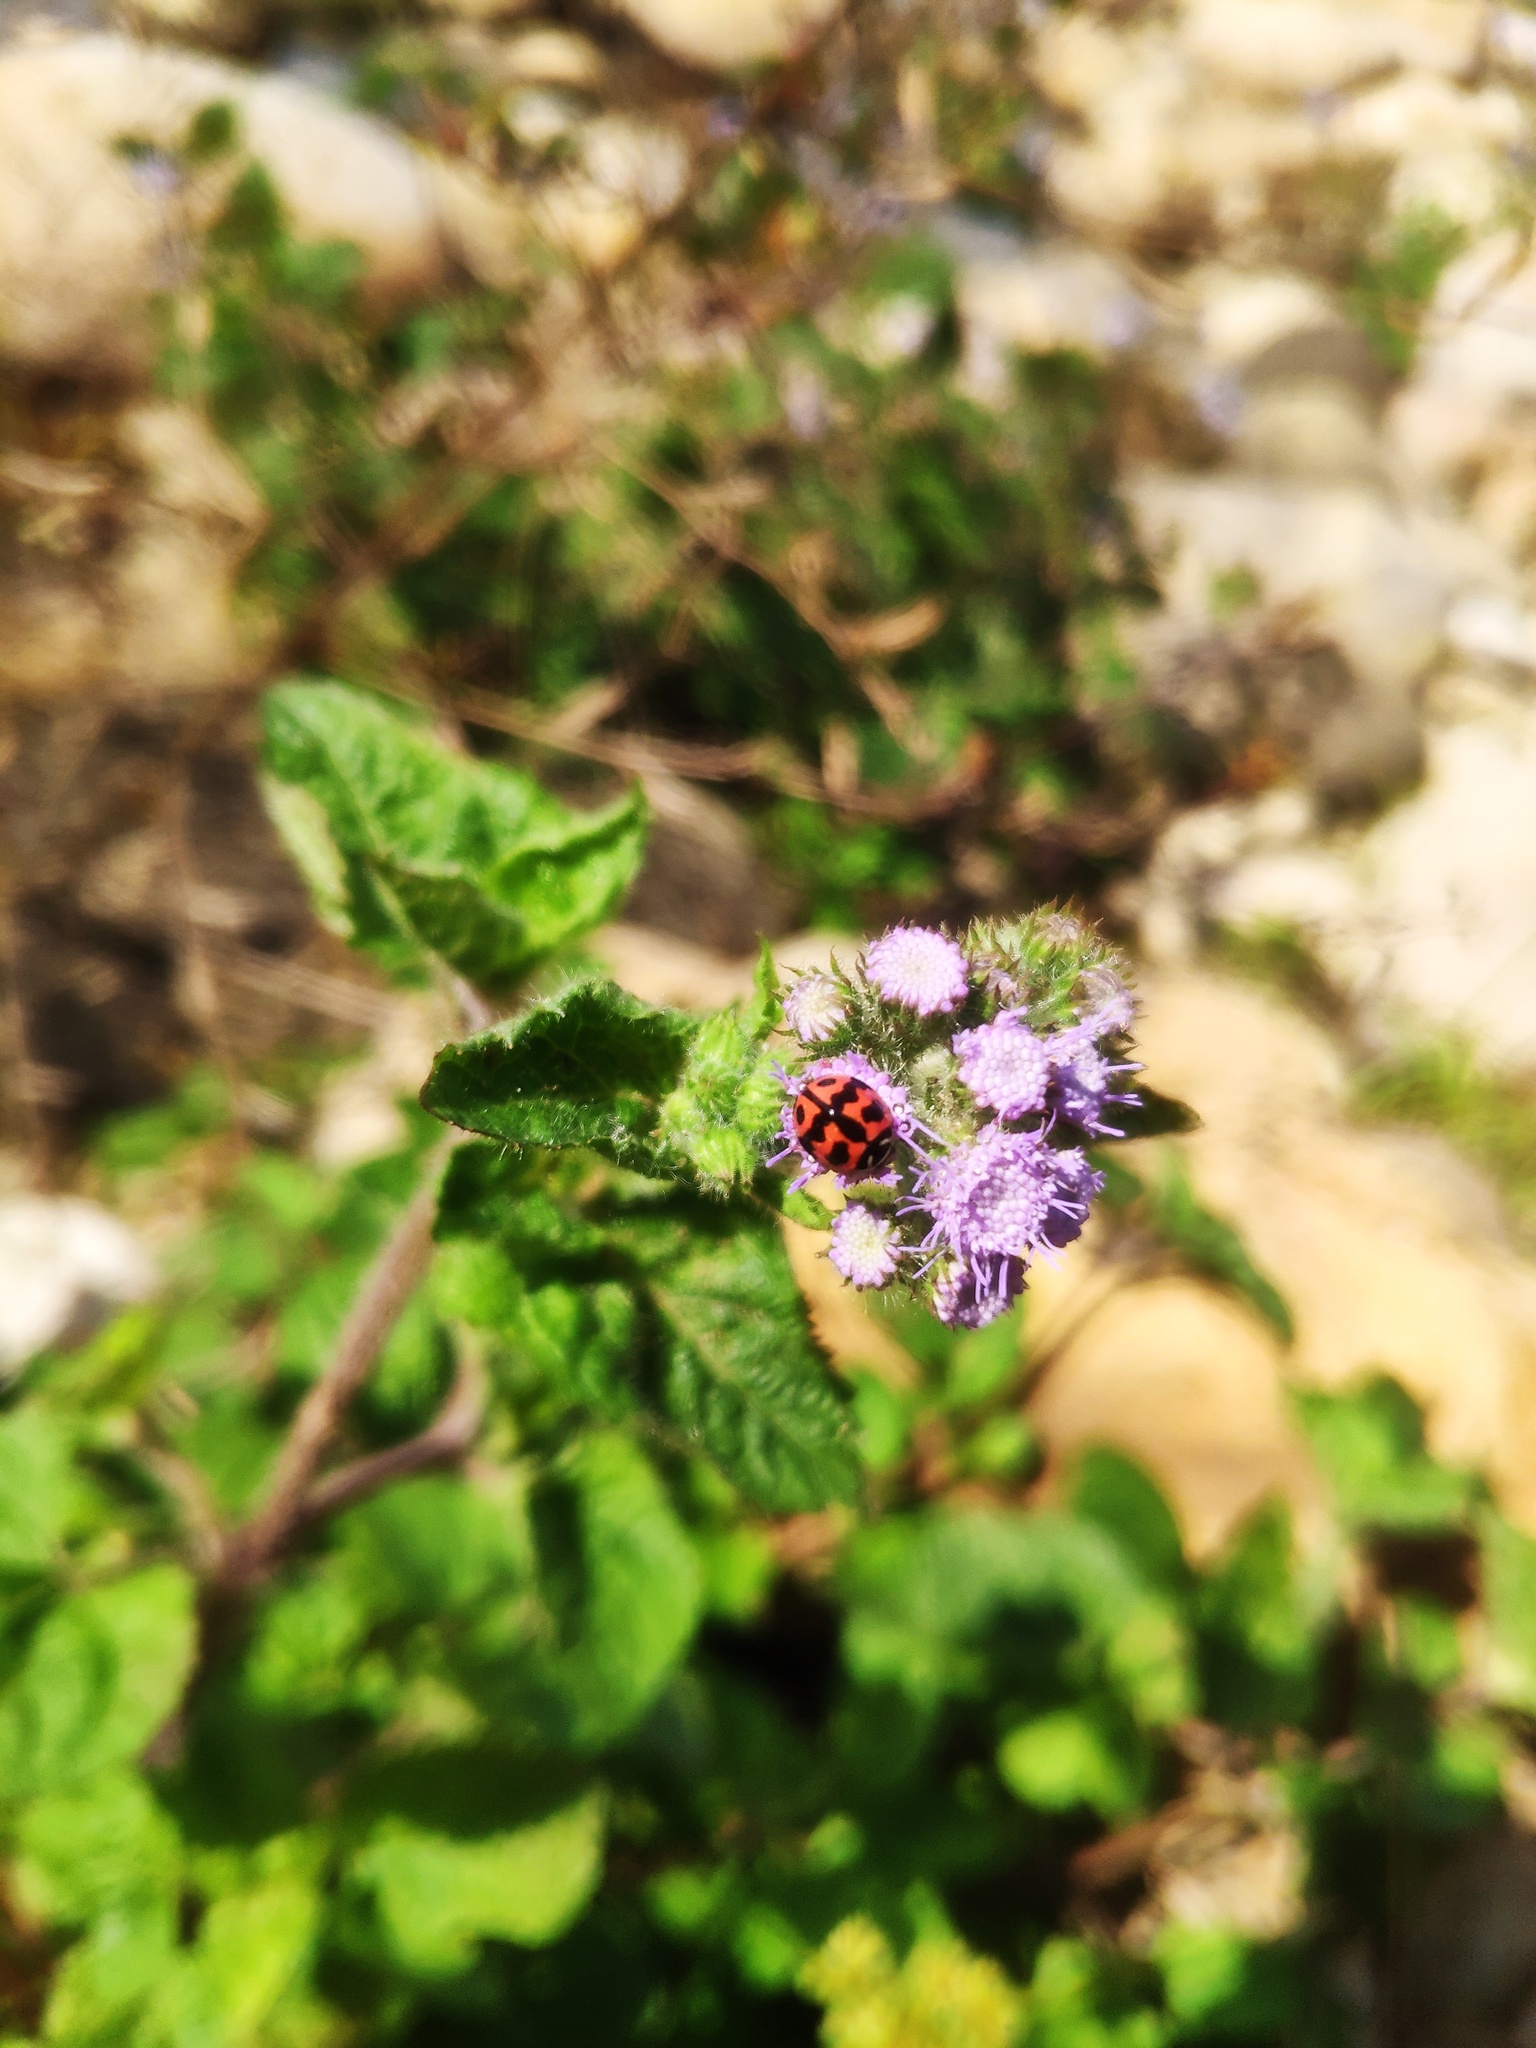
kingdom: Animalia
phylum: Arthropoda
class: Insecta
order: Coleoptera
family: Coccinellidae
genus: Cheilomenes
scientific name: Cheilomenes sexmaculata
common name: Ladybird beetle
